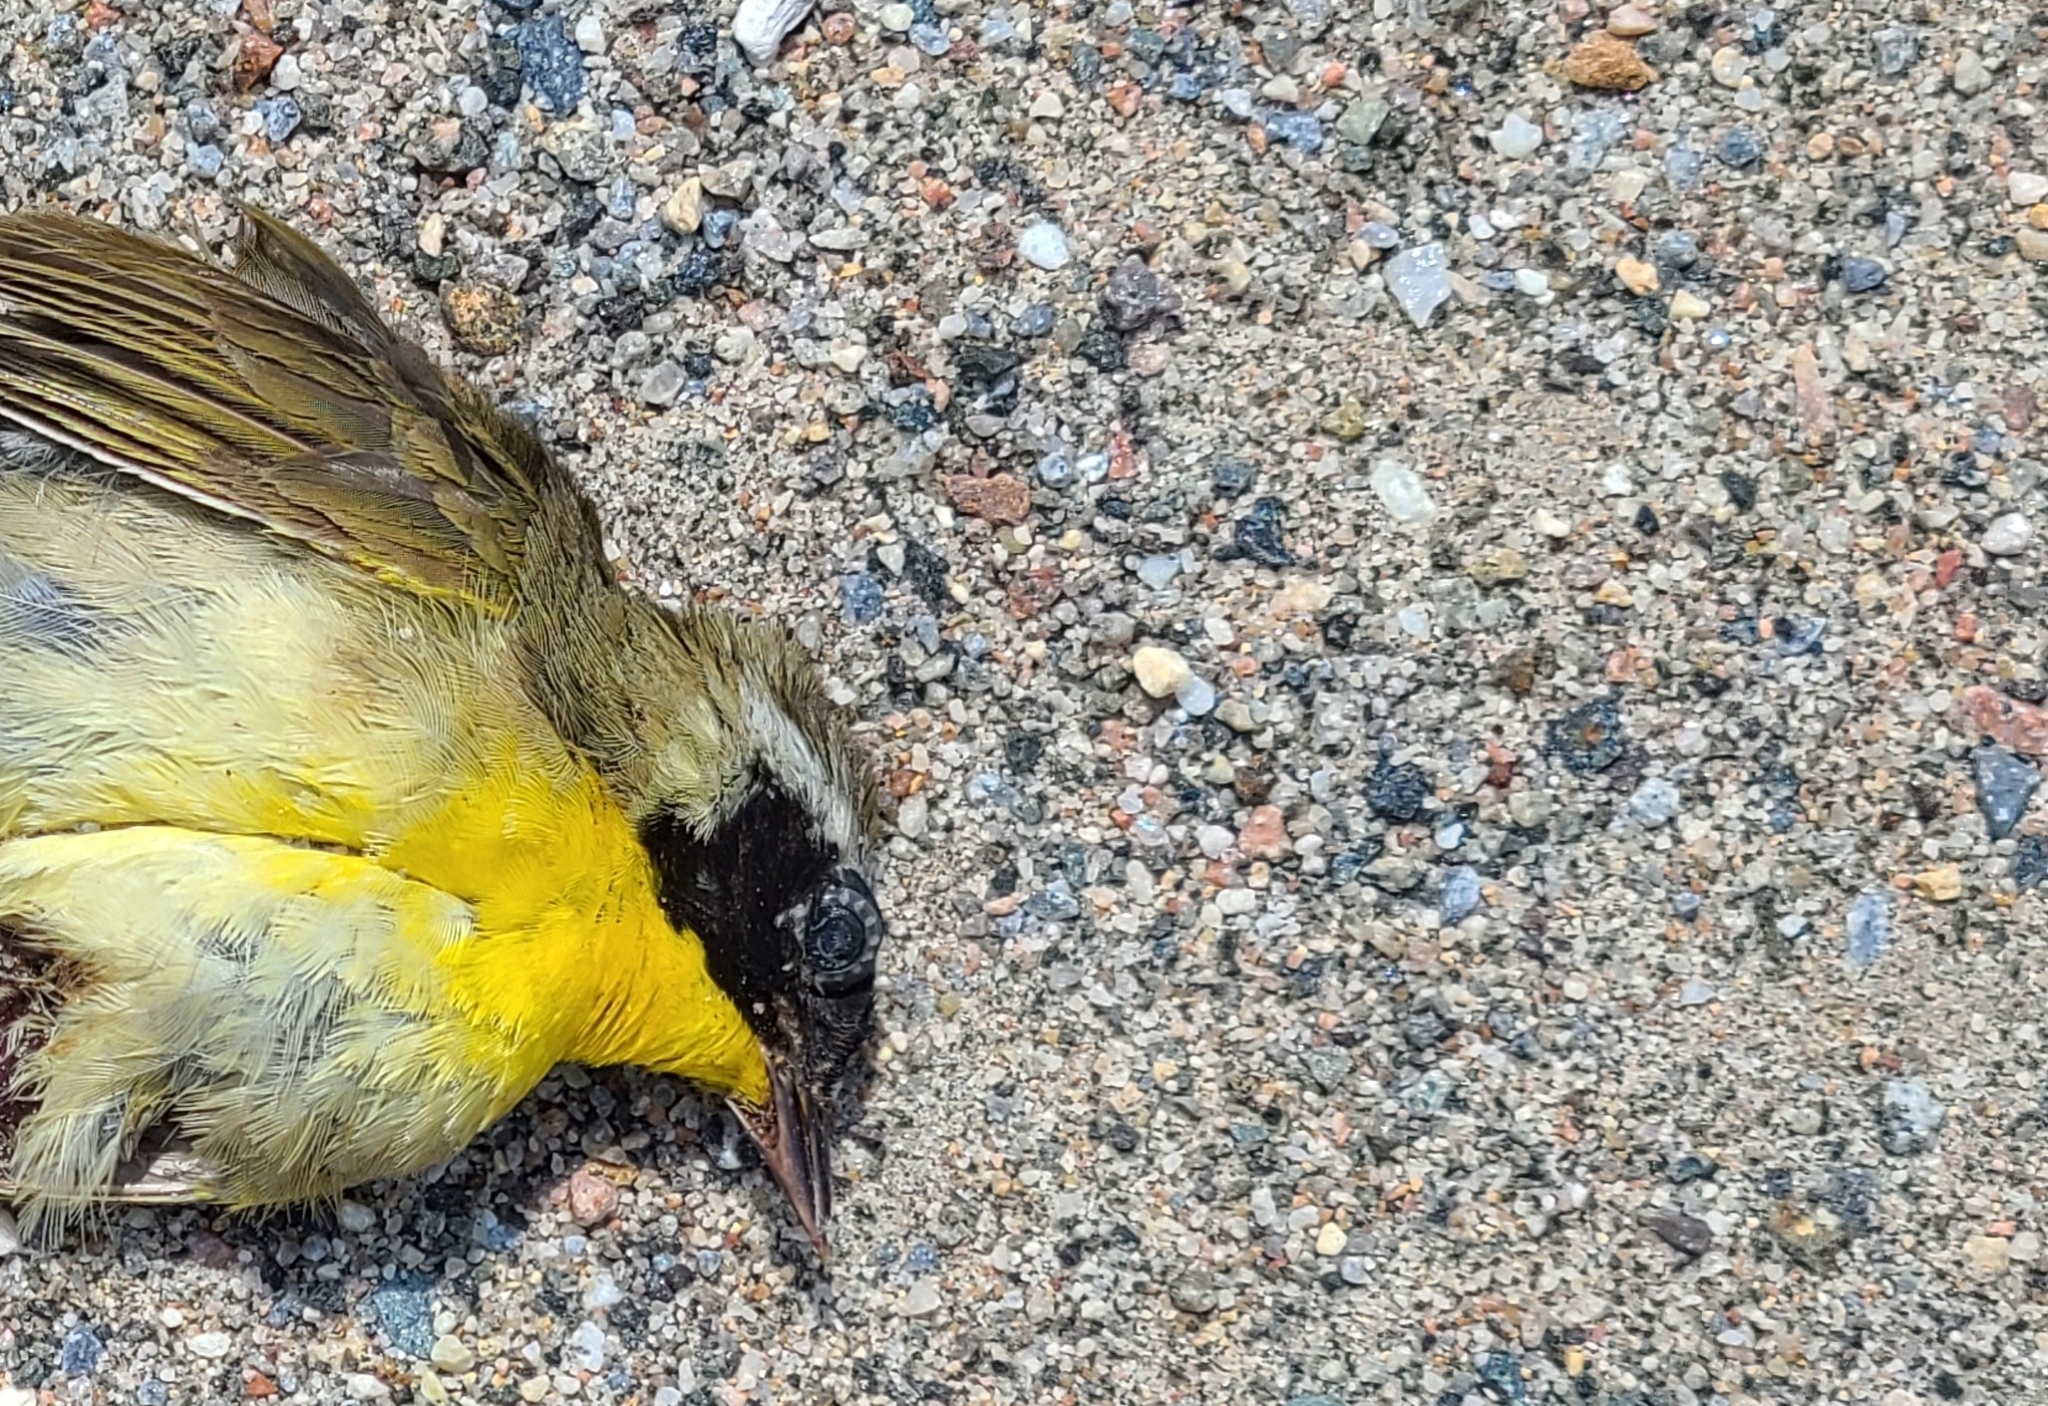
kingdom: Animalia
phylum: Chordata
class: Aves
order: Passeriformes
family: Parulidae
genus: Geothlypis
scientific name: Geothlypis trichas
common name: Common yellowthroat
